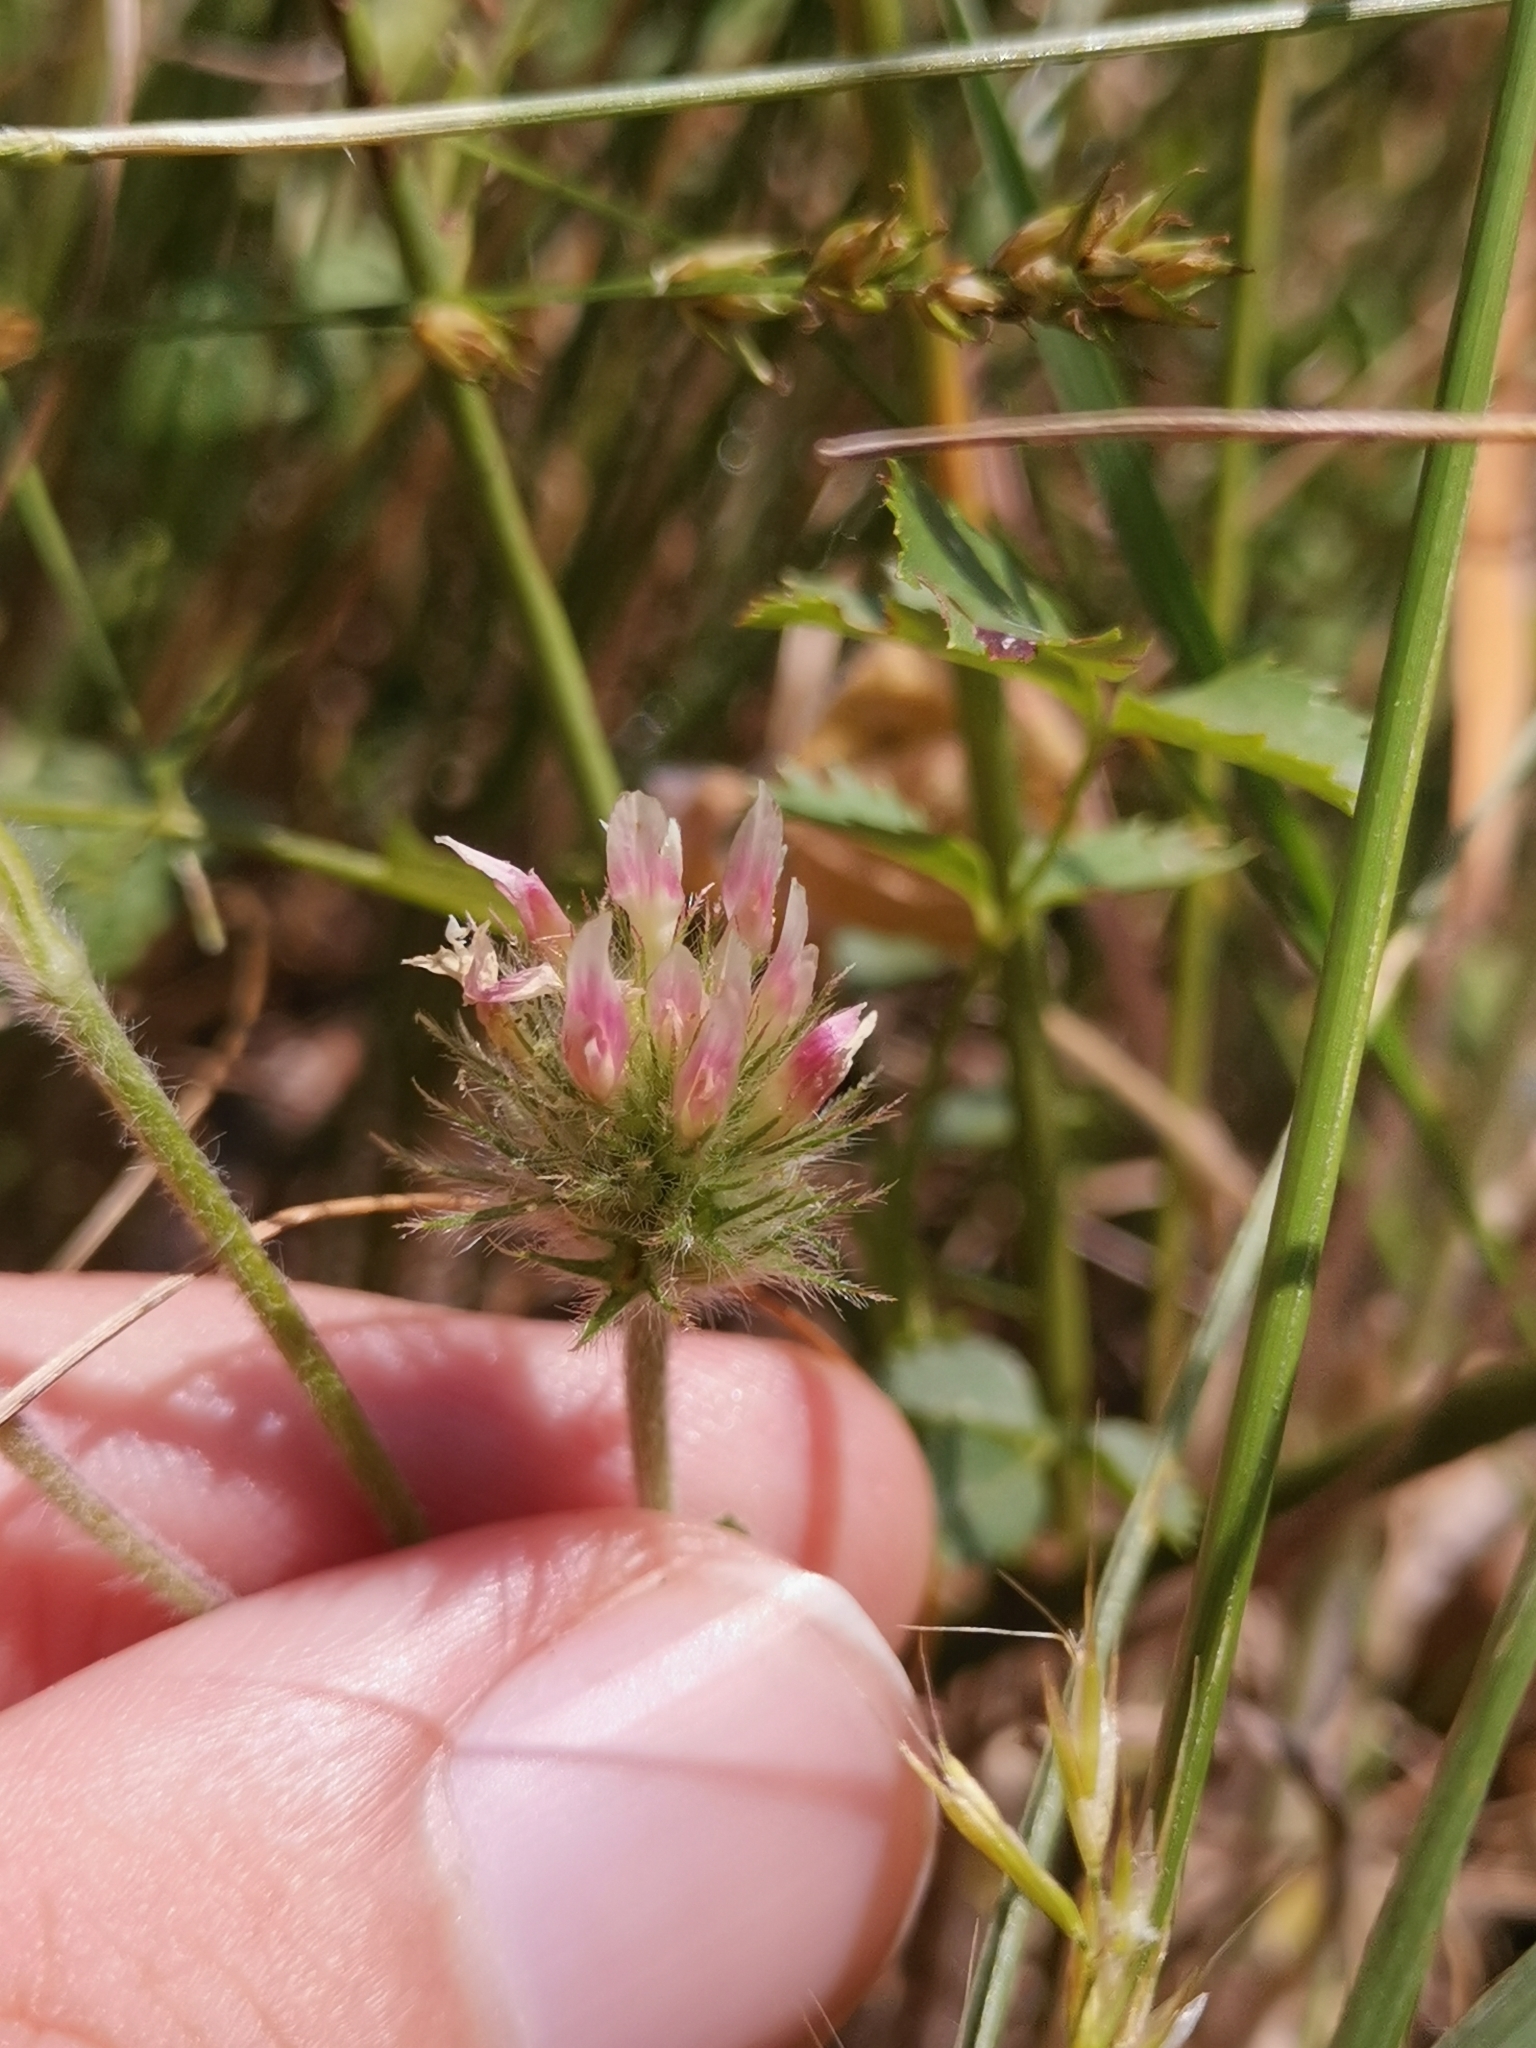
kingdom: Plantae
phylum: Tracheophyta
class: Magnoliopsida
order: Fabales
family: Fabaceae
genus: Trifolium
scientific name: Trifolium arvense
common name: Hare's-foot clover
